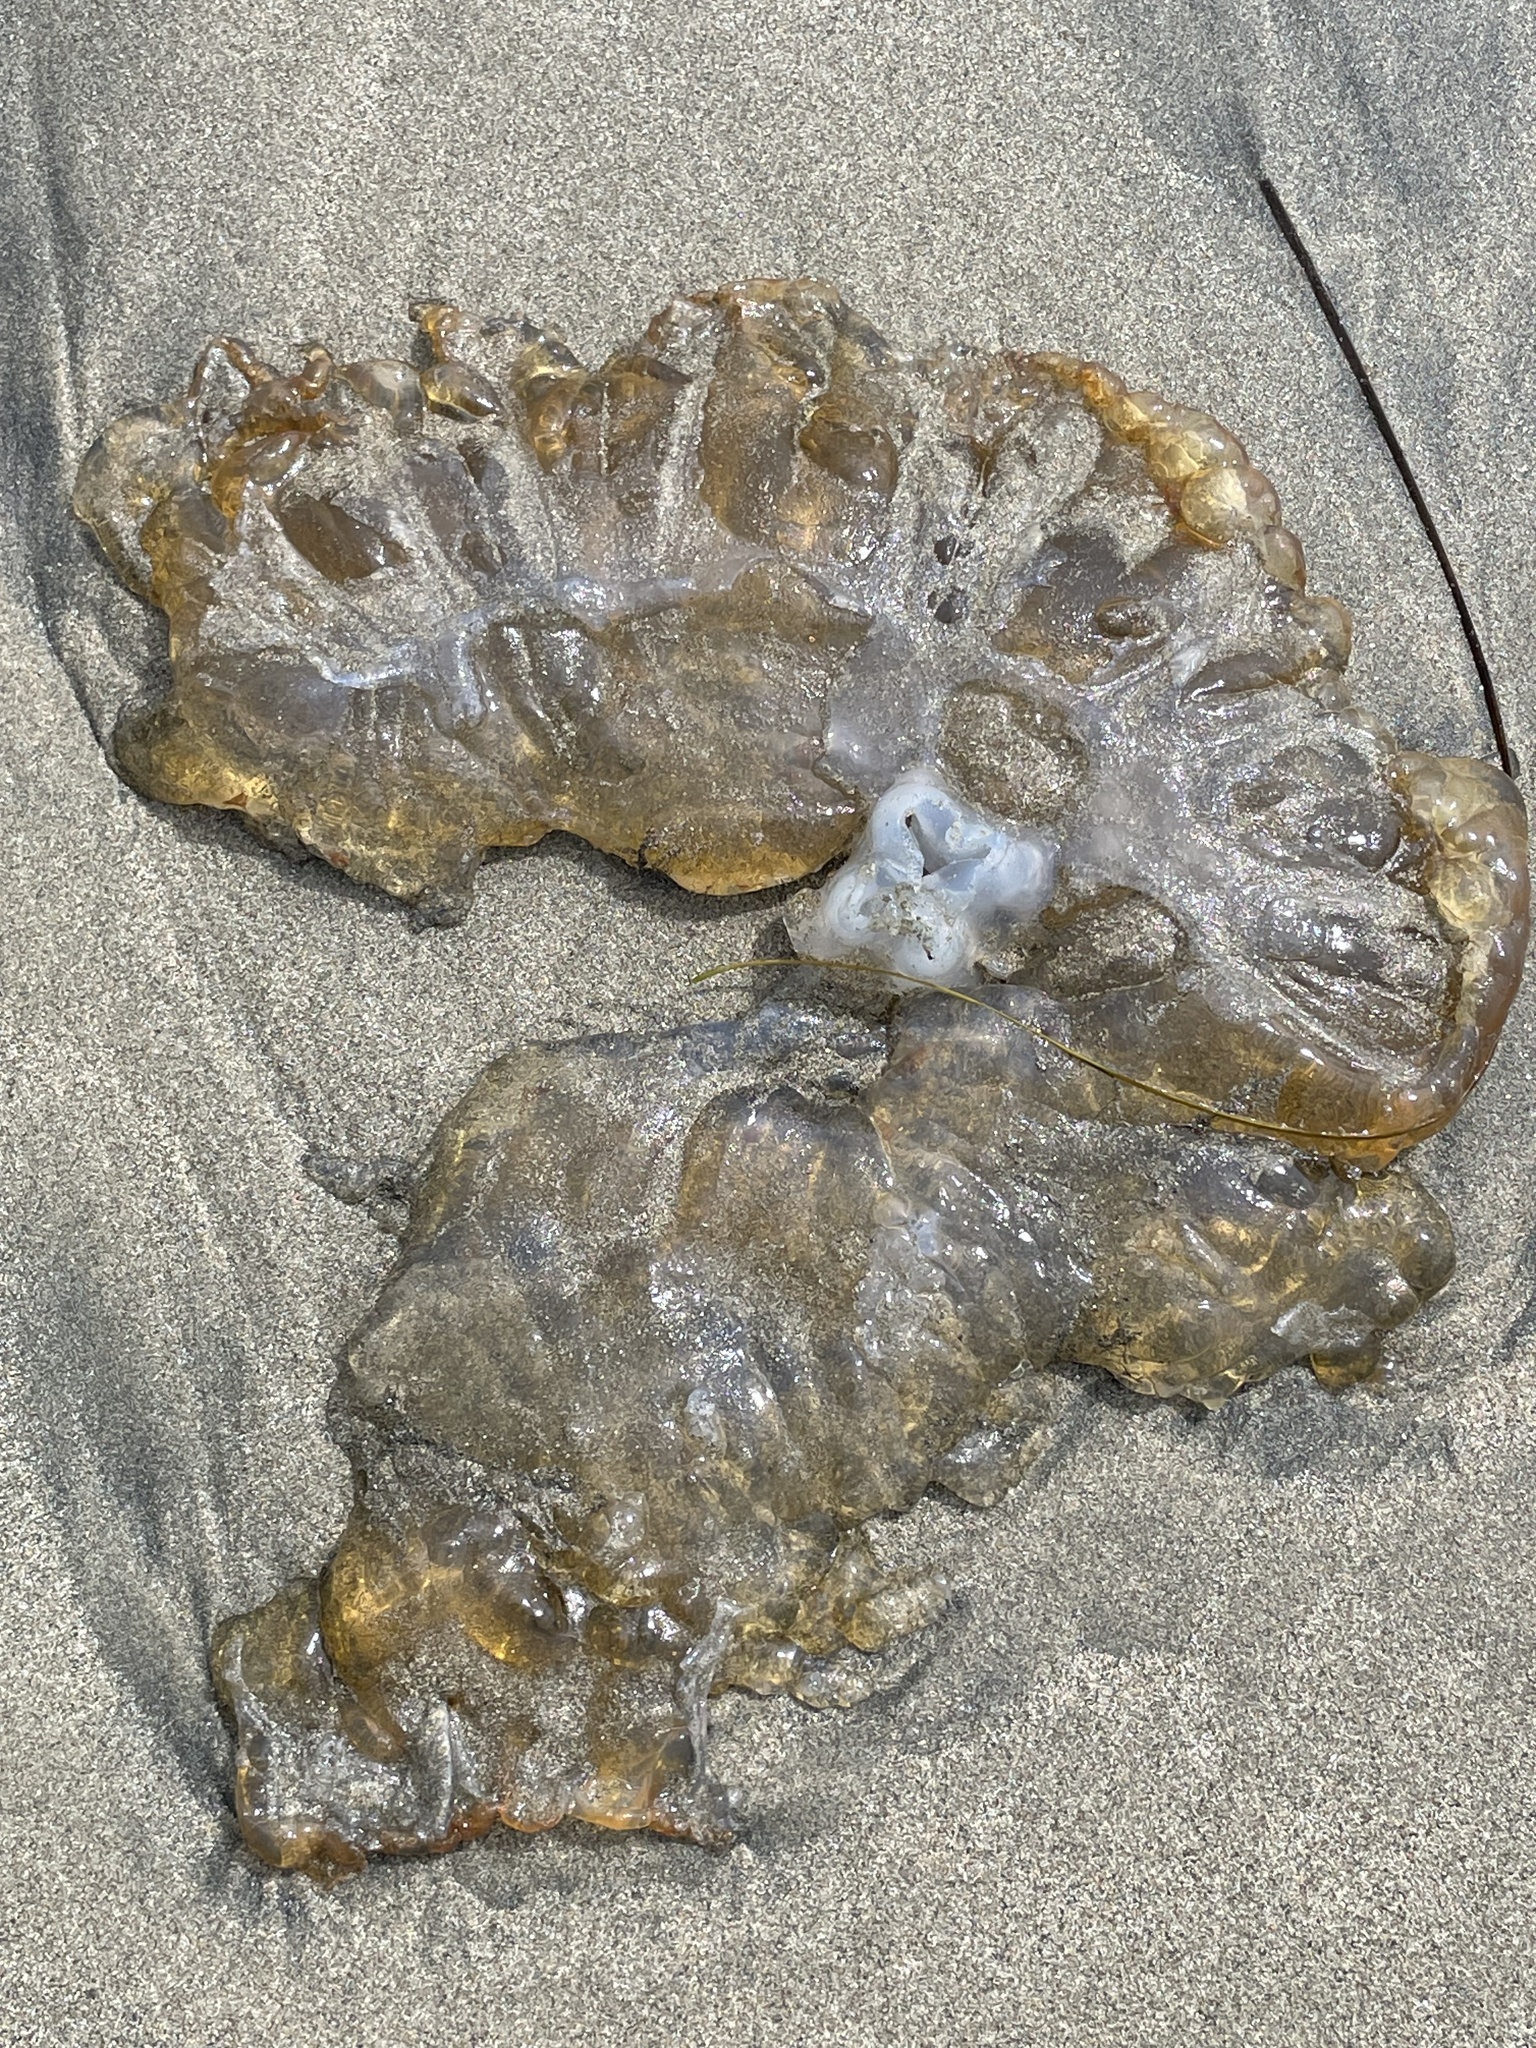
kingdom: Animalia
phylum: Cnidaria
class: Scyphozoa
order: Semaeostomeae
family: Pelagiidae
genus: Chrysaora
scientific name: Chrysaora fuscescens
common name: Sea nettle
